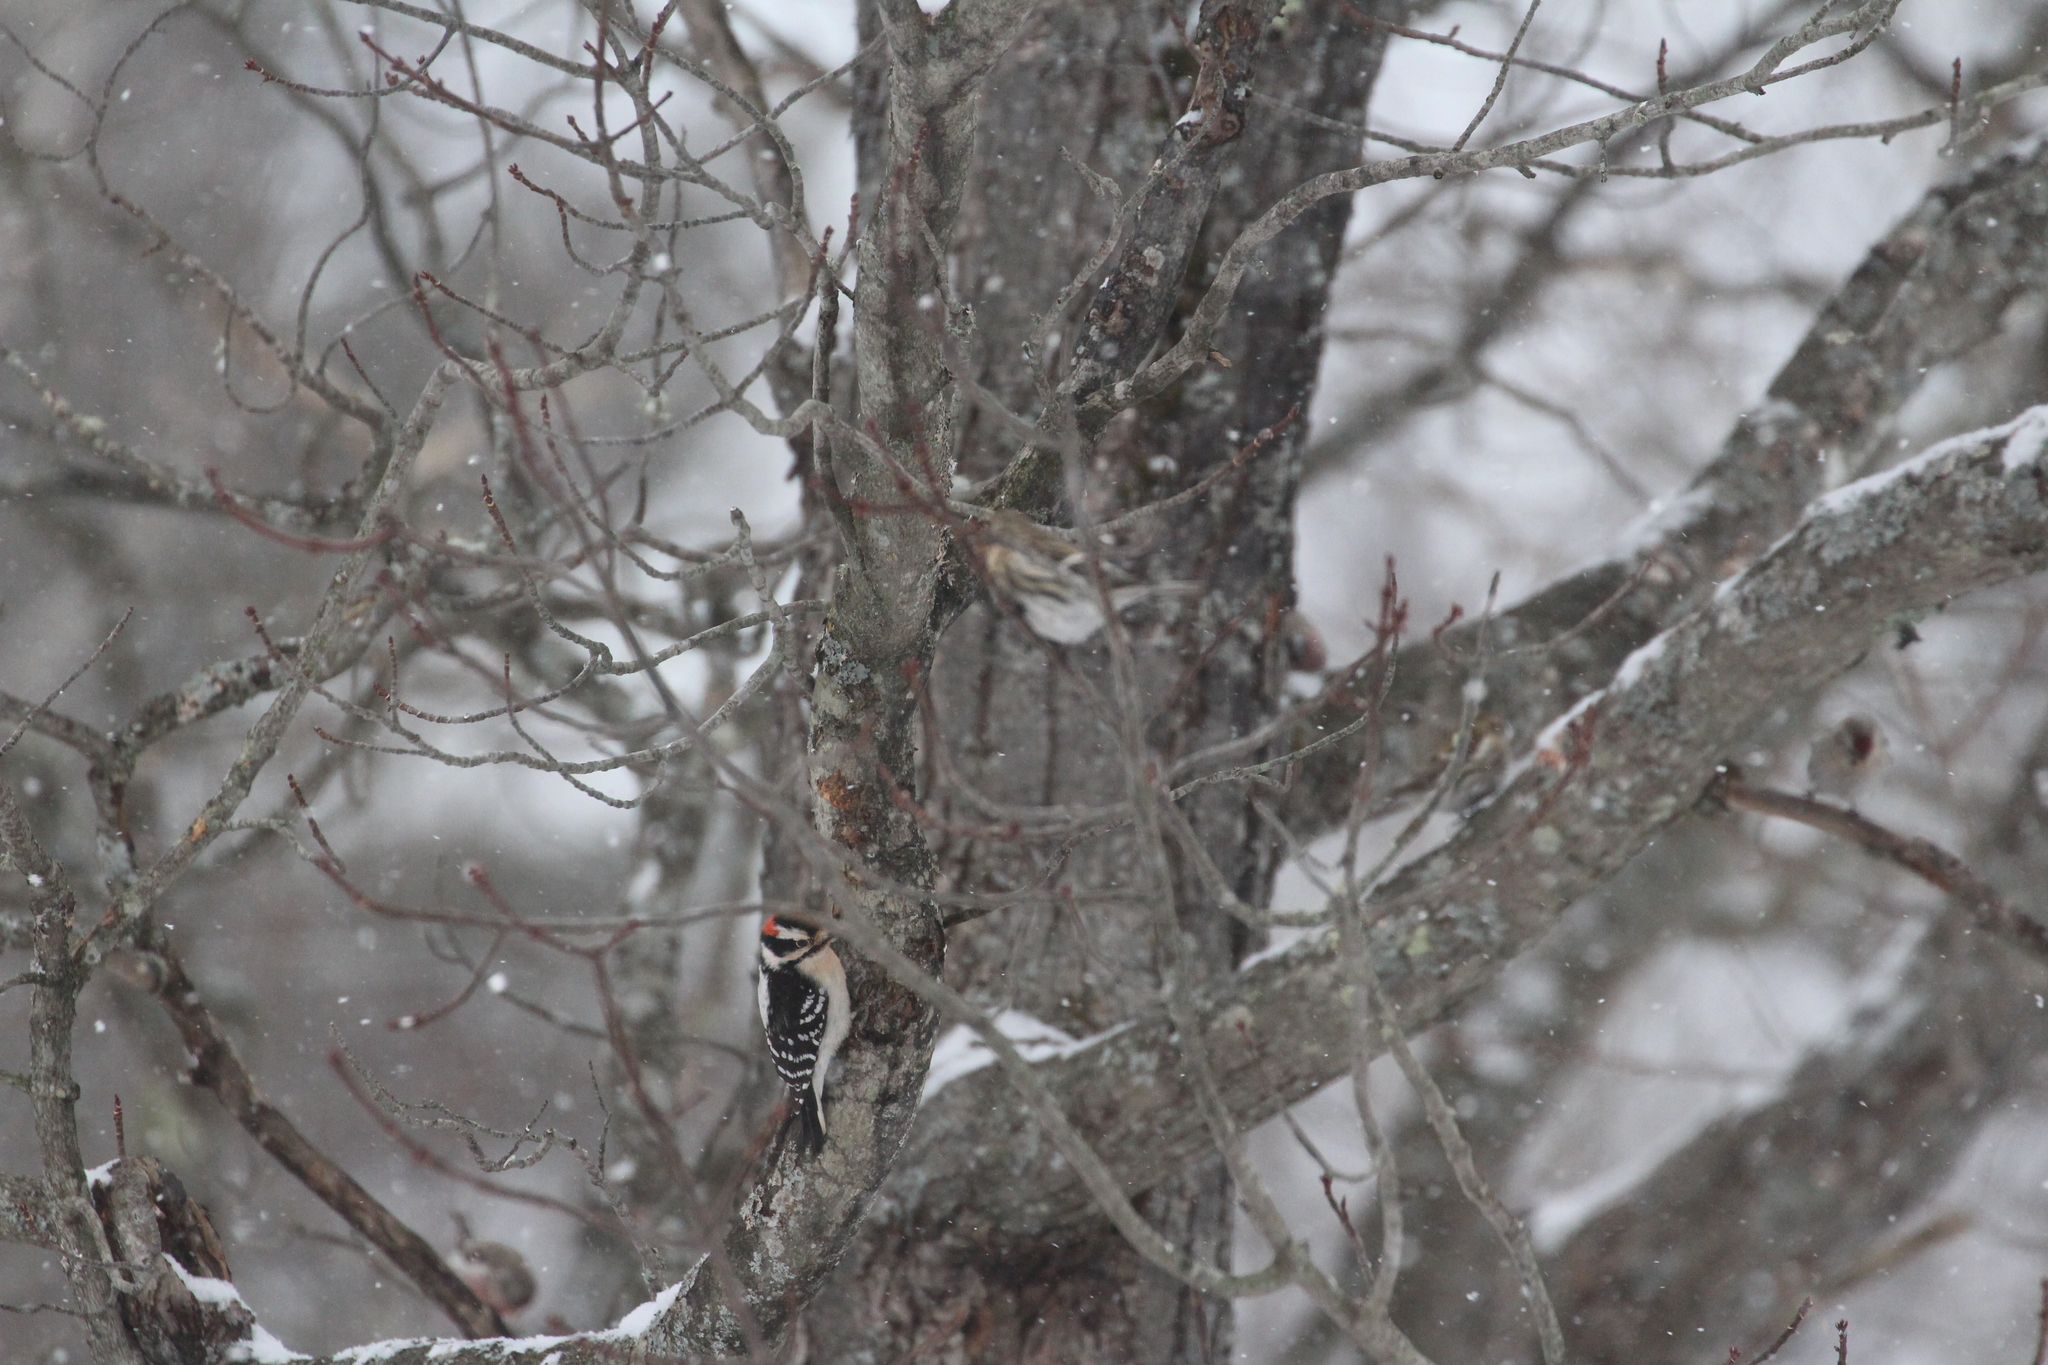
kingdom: Animalia
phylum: Chordata
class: Aves
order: Piciformes
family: Picidae
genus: Dryobates
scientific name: Dryobates pubescens
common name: Downy woodpecker
